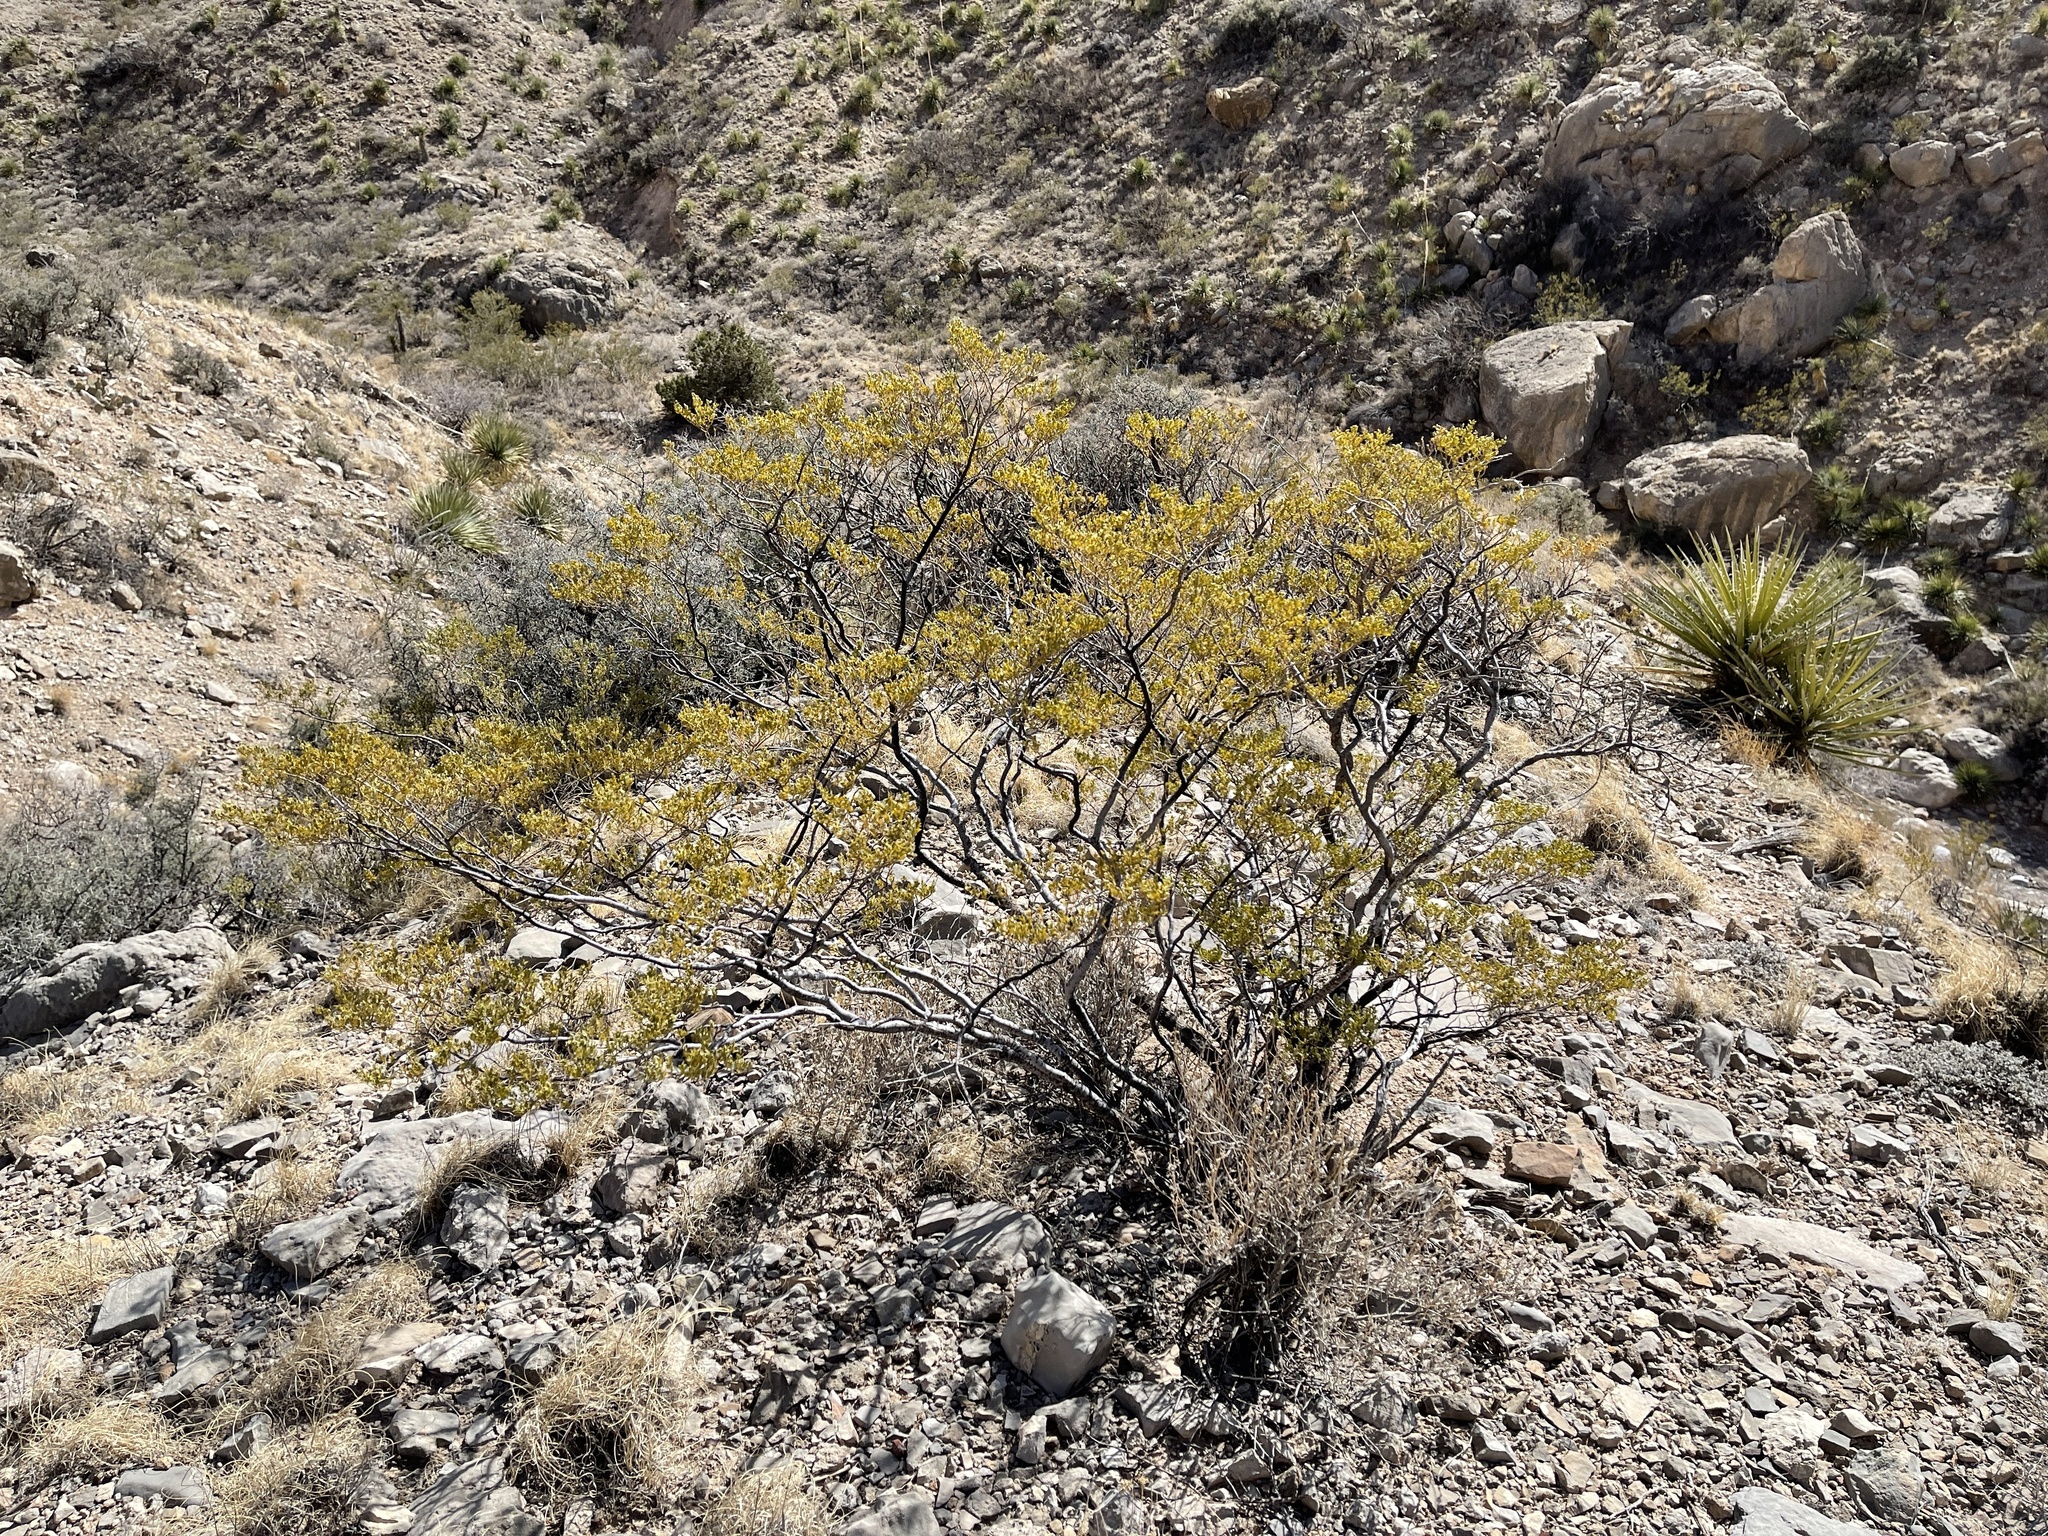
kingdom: Plantae
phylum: Tracheophyta
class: Magnoliopsida
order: Zygophyllales
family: Zygophyllaceae
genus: Larrea
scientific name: Larrea tridentata
